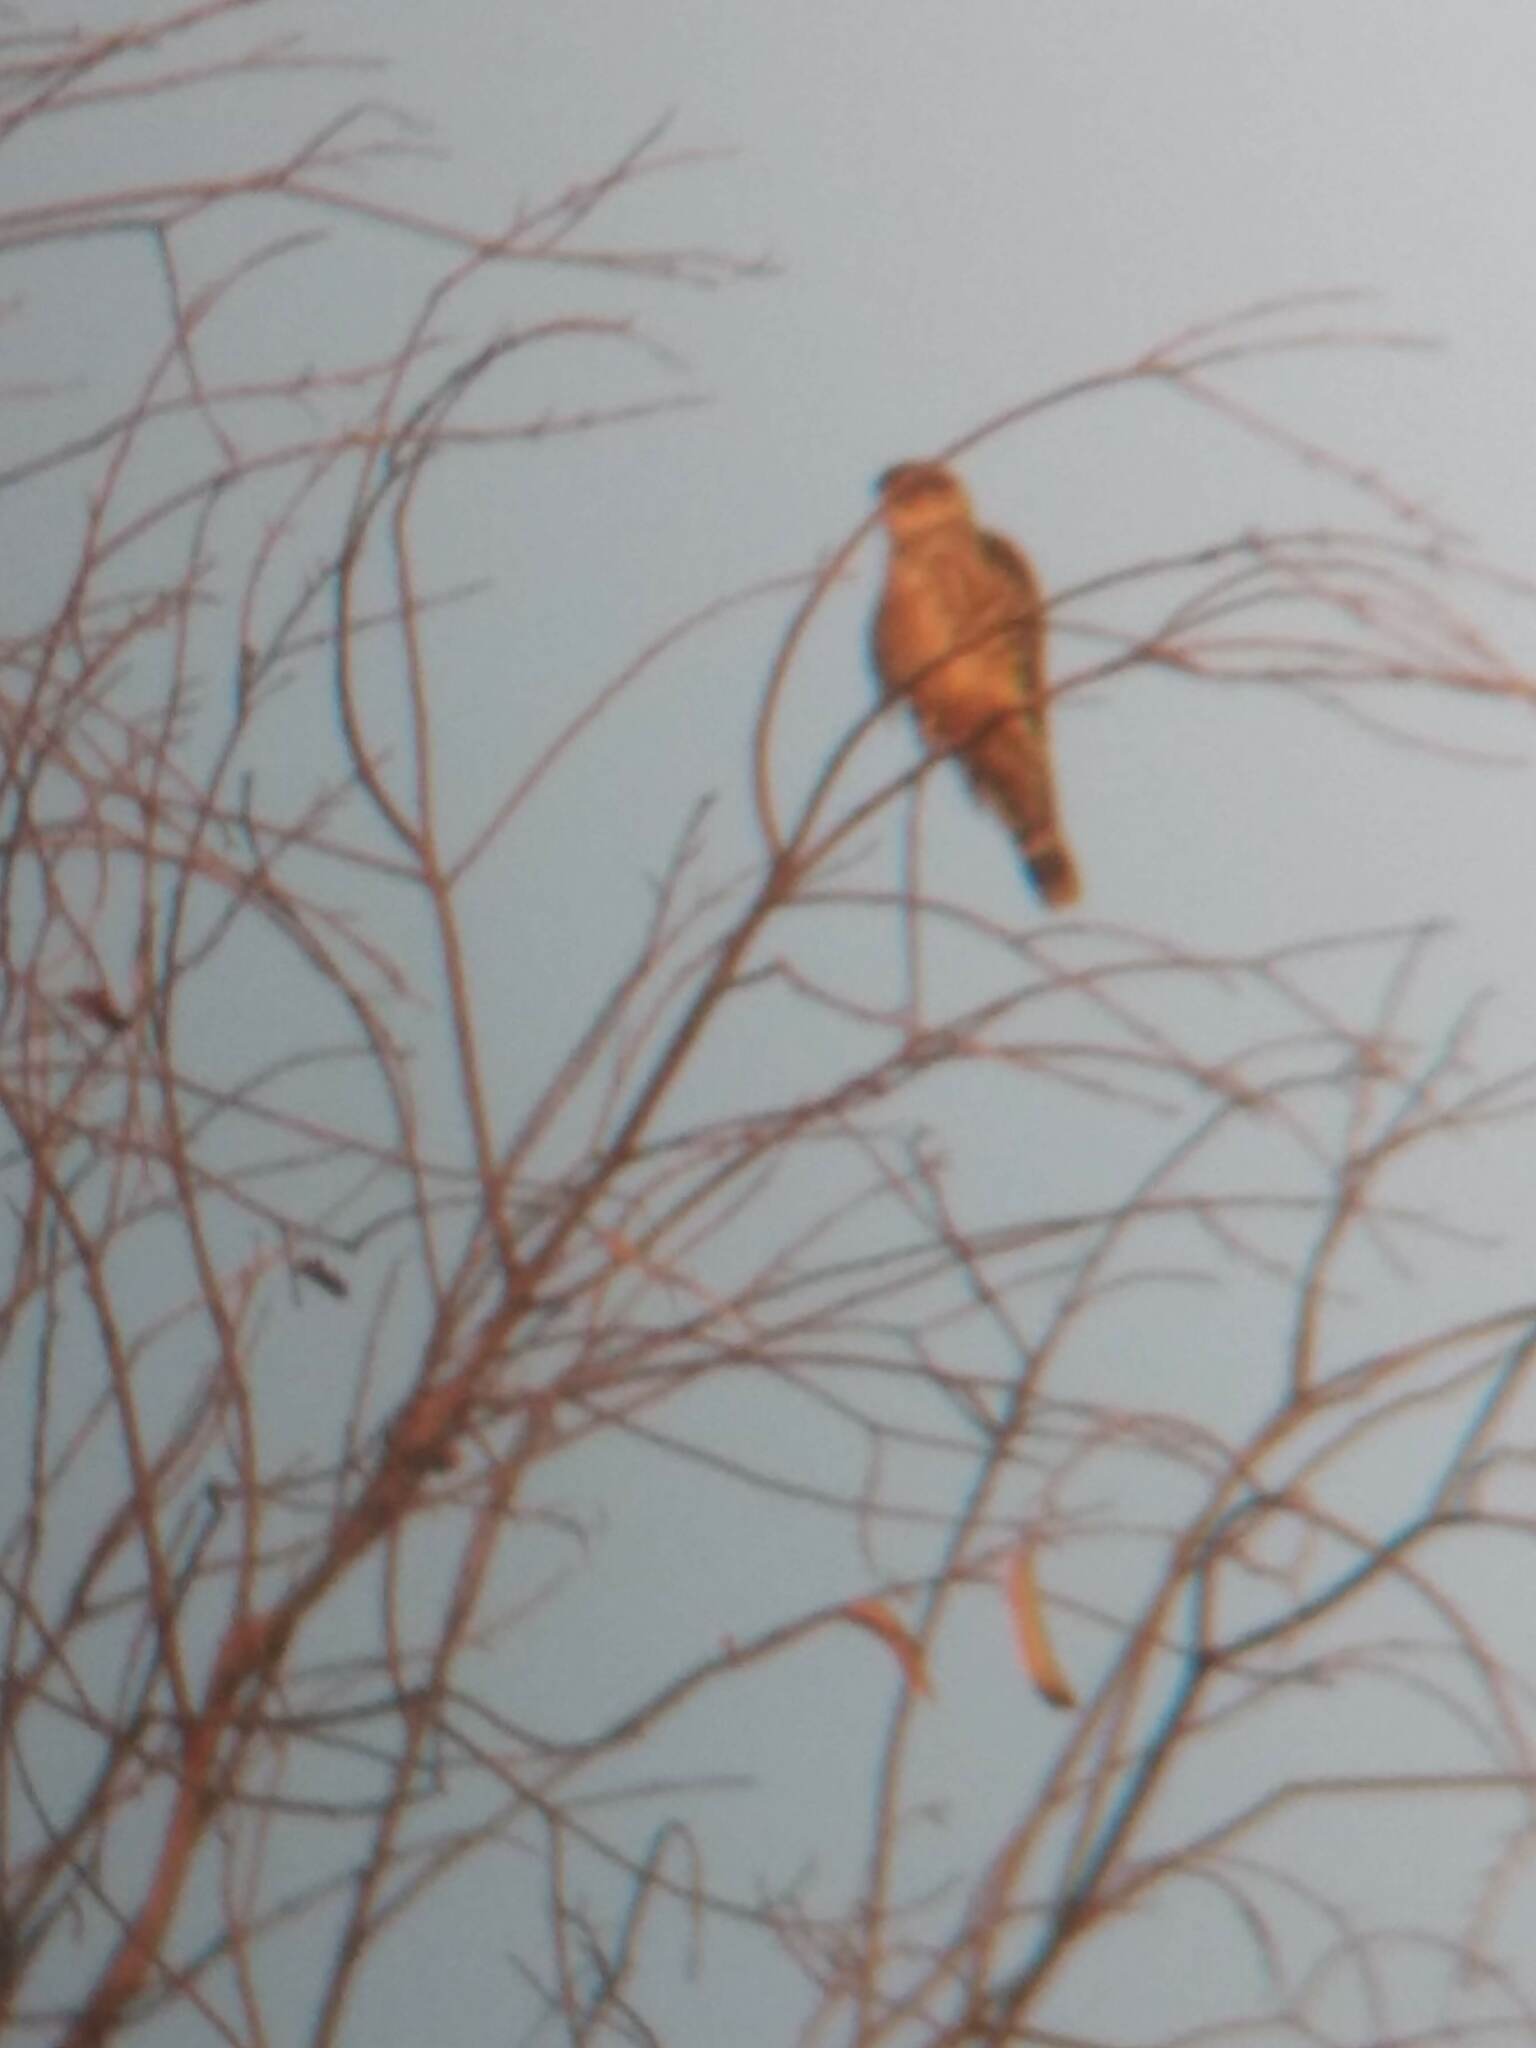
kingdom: Animalia
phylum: Chordata
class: Aves
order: Falconiformes
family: Falconidae
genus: Falco
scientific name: Falco columbarius
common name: Merlin
